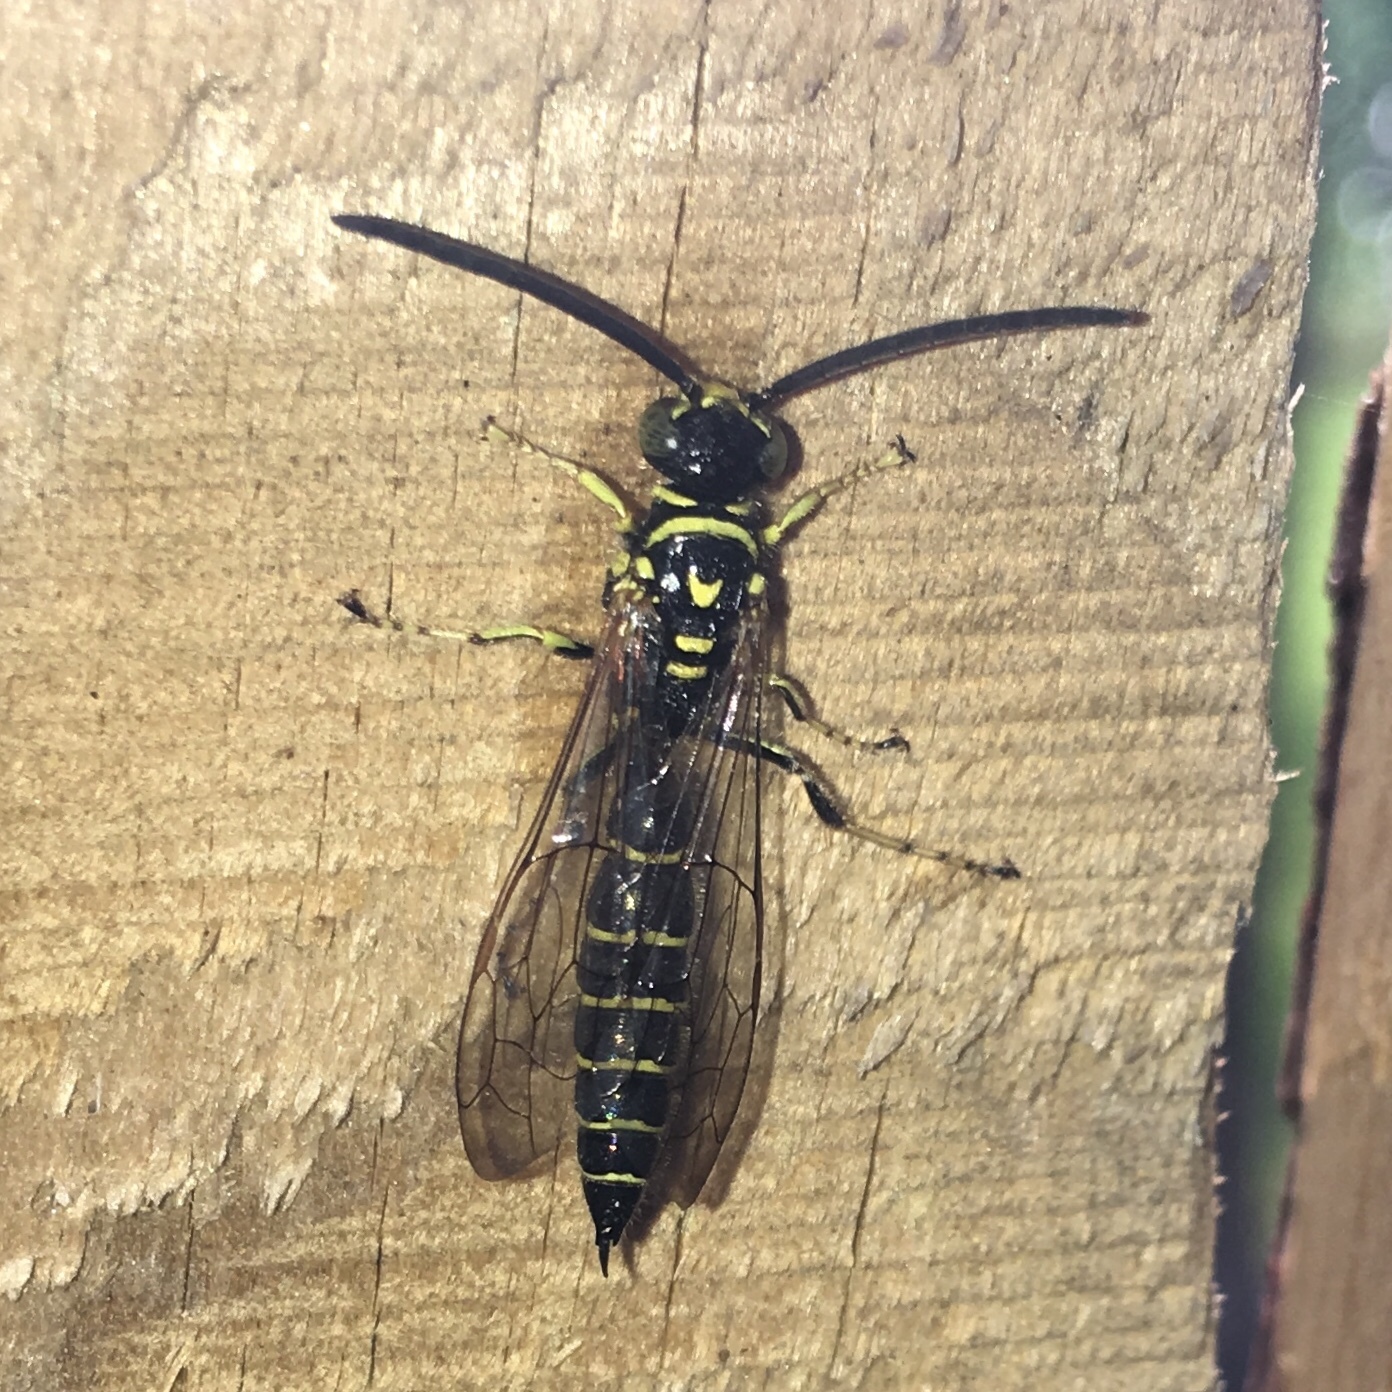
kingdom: Animalia
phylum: Arthropoda
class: Insecta
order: Hymenoptera
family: Tiphiidae
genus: Myzinum
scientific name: Myzinum
